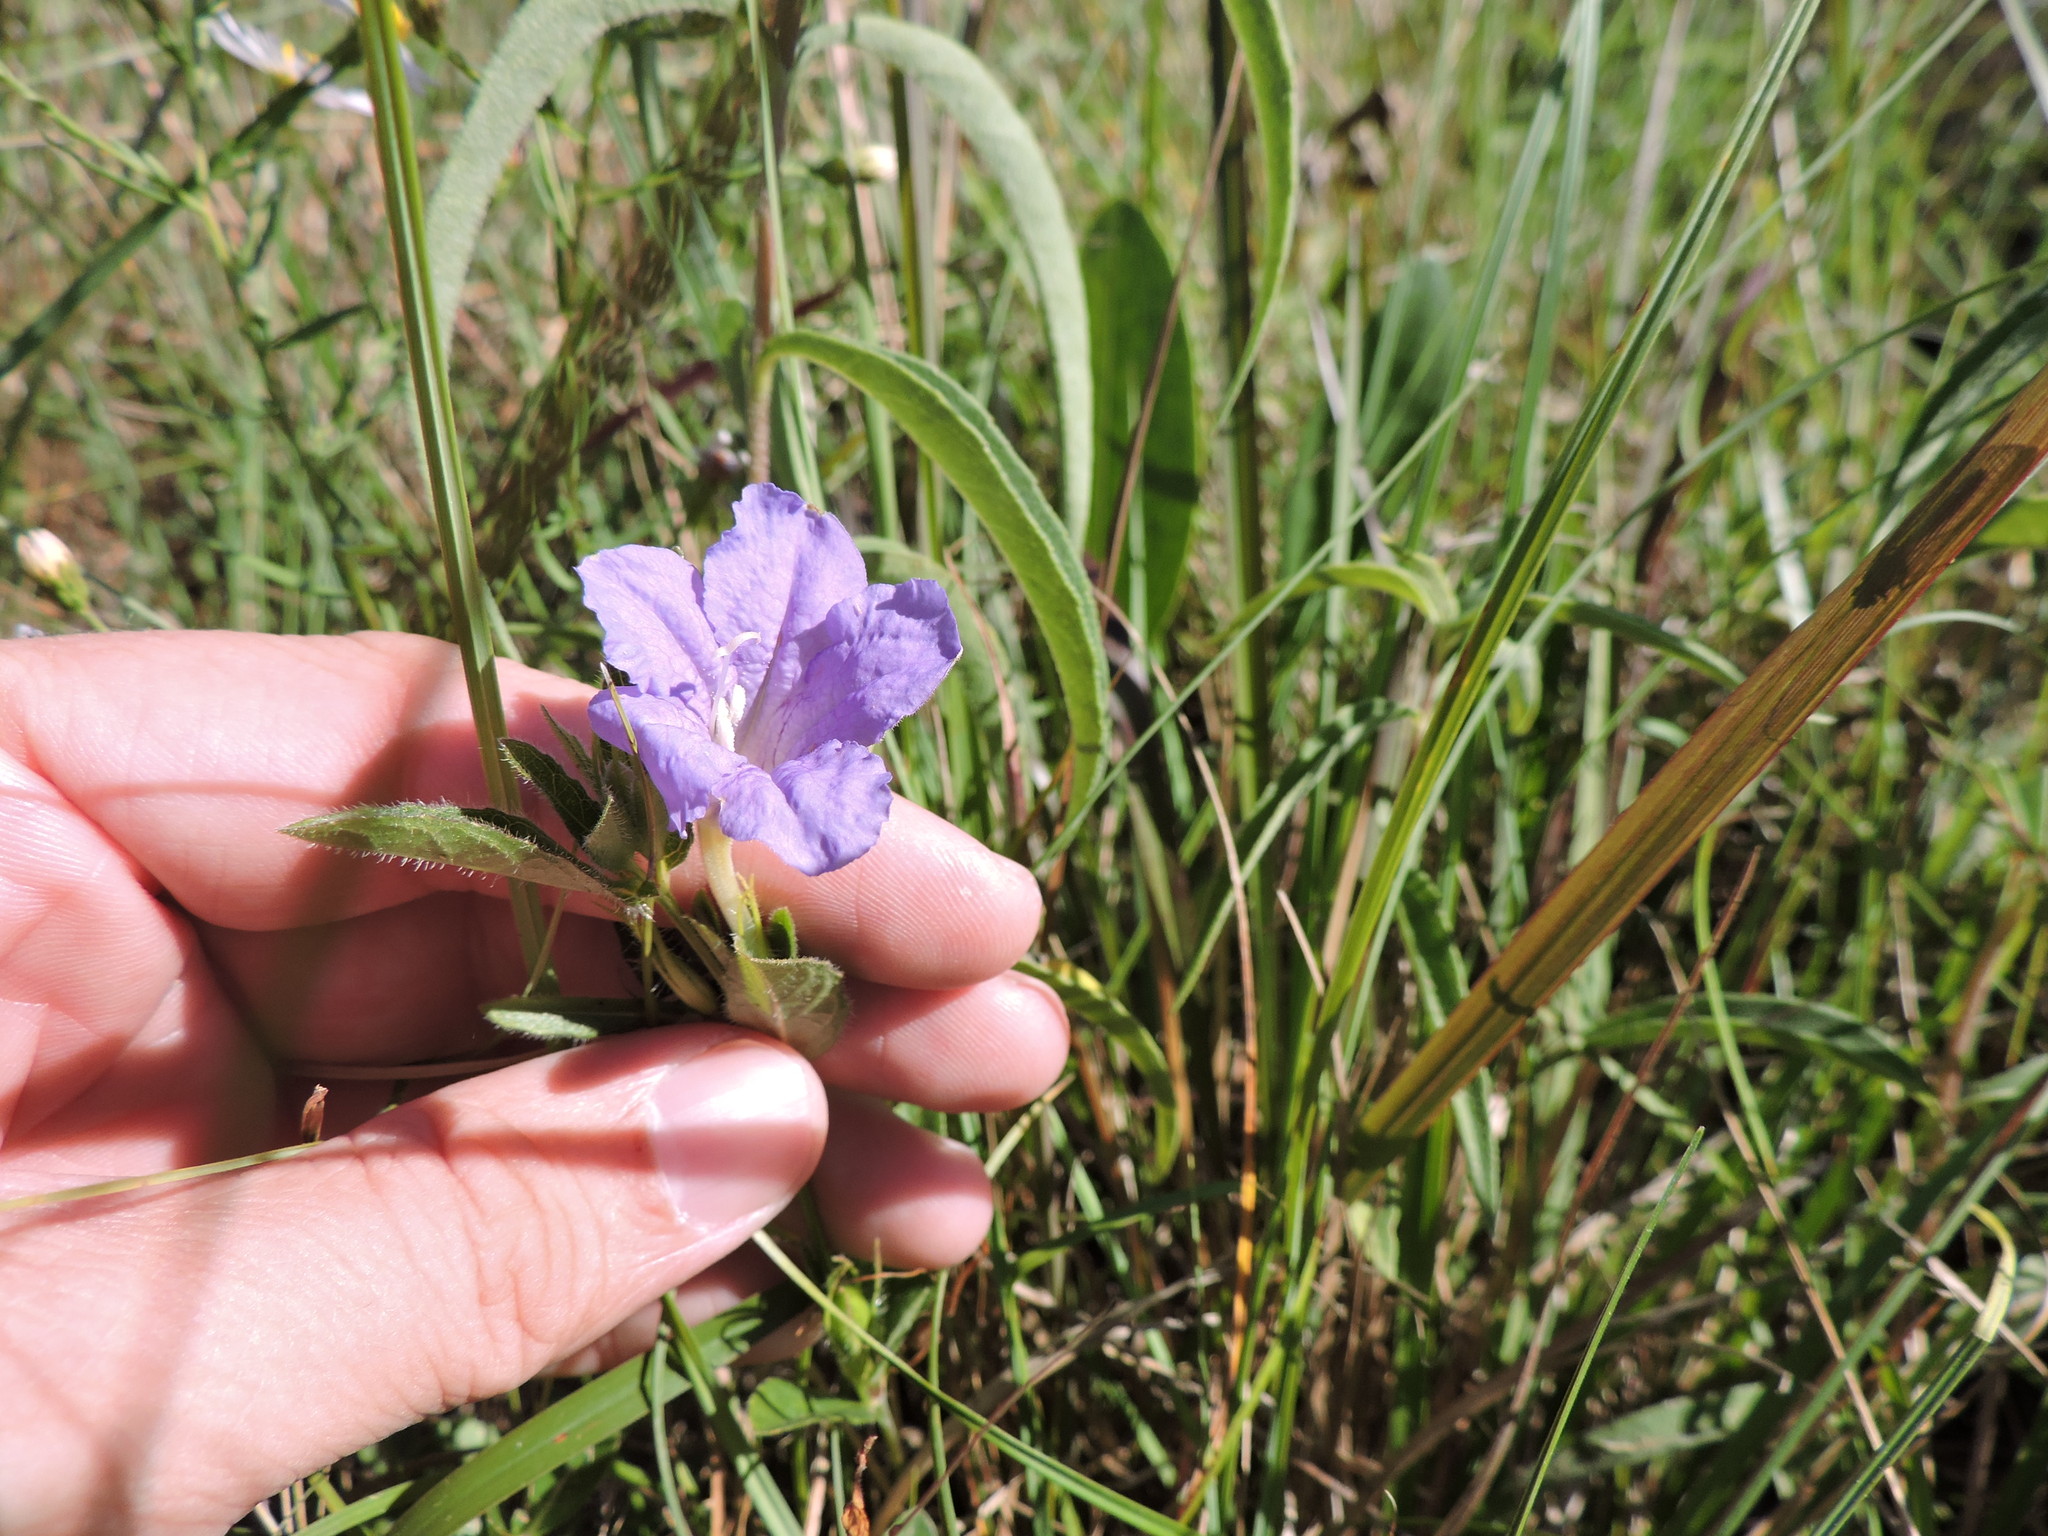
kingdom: Plantae
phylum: Tracheophyta
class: Magnoliopsida
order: Lamiales
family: Acanthaceae
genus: Ruellia
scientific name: Ruellia humilis
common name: Fringe-leaf ruellia
